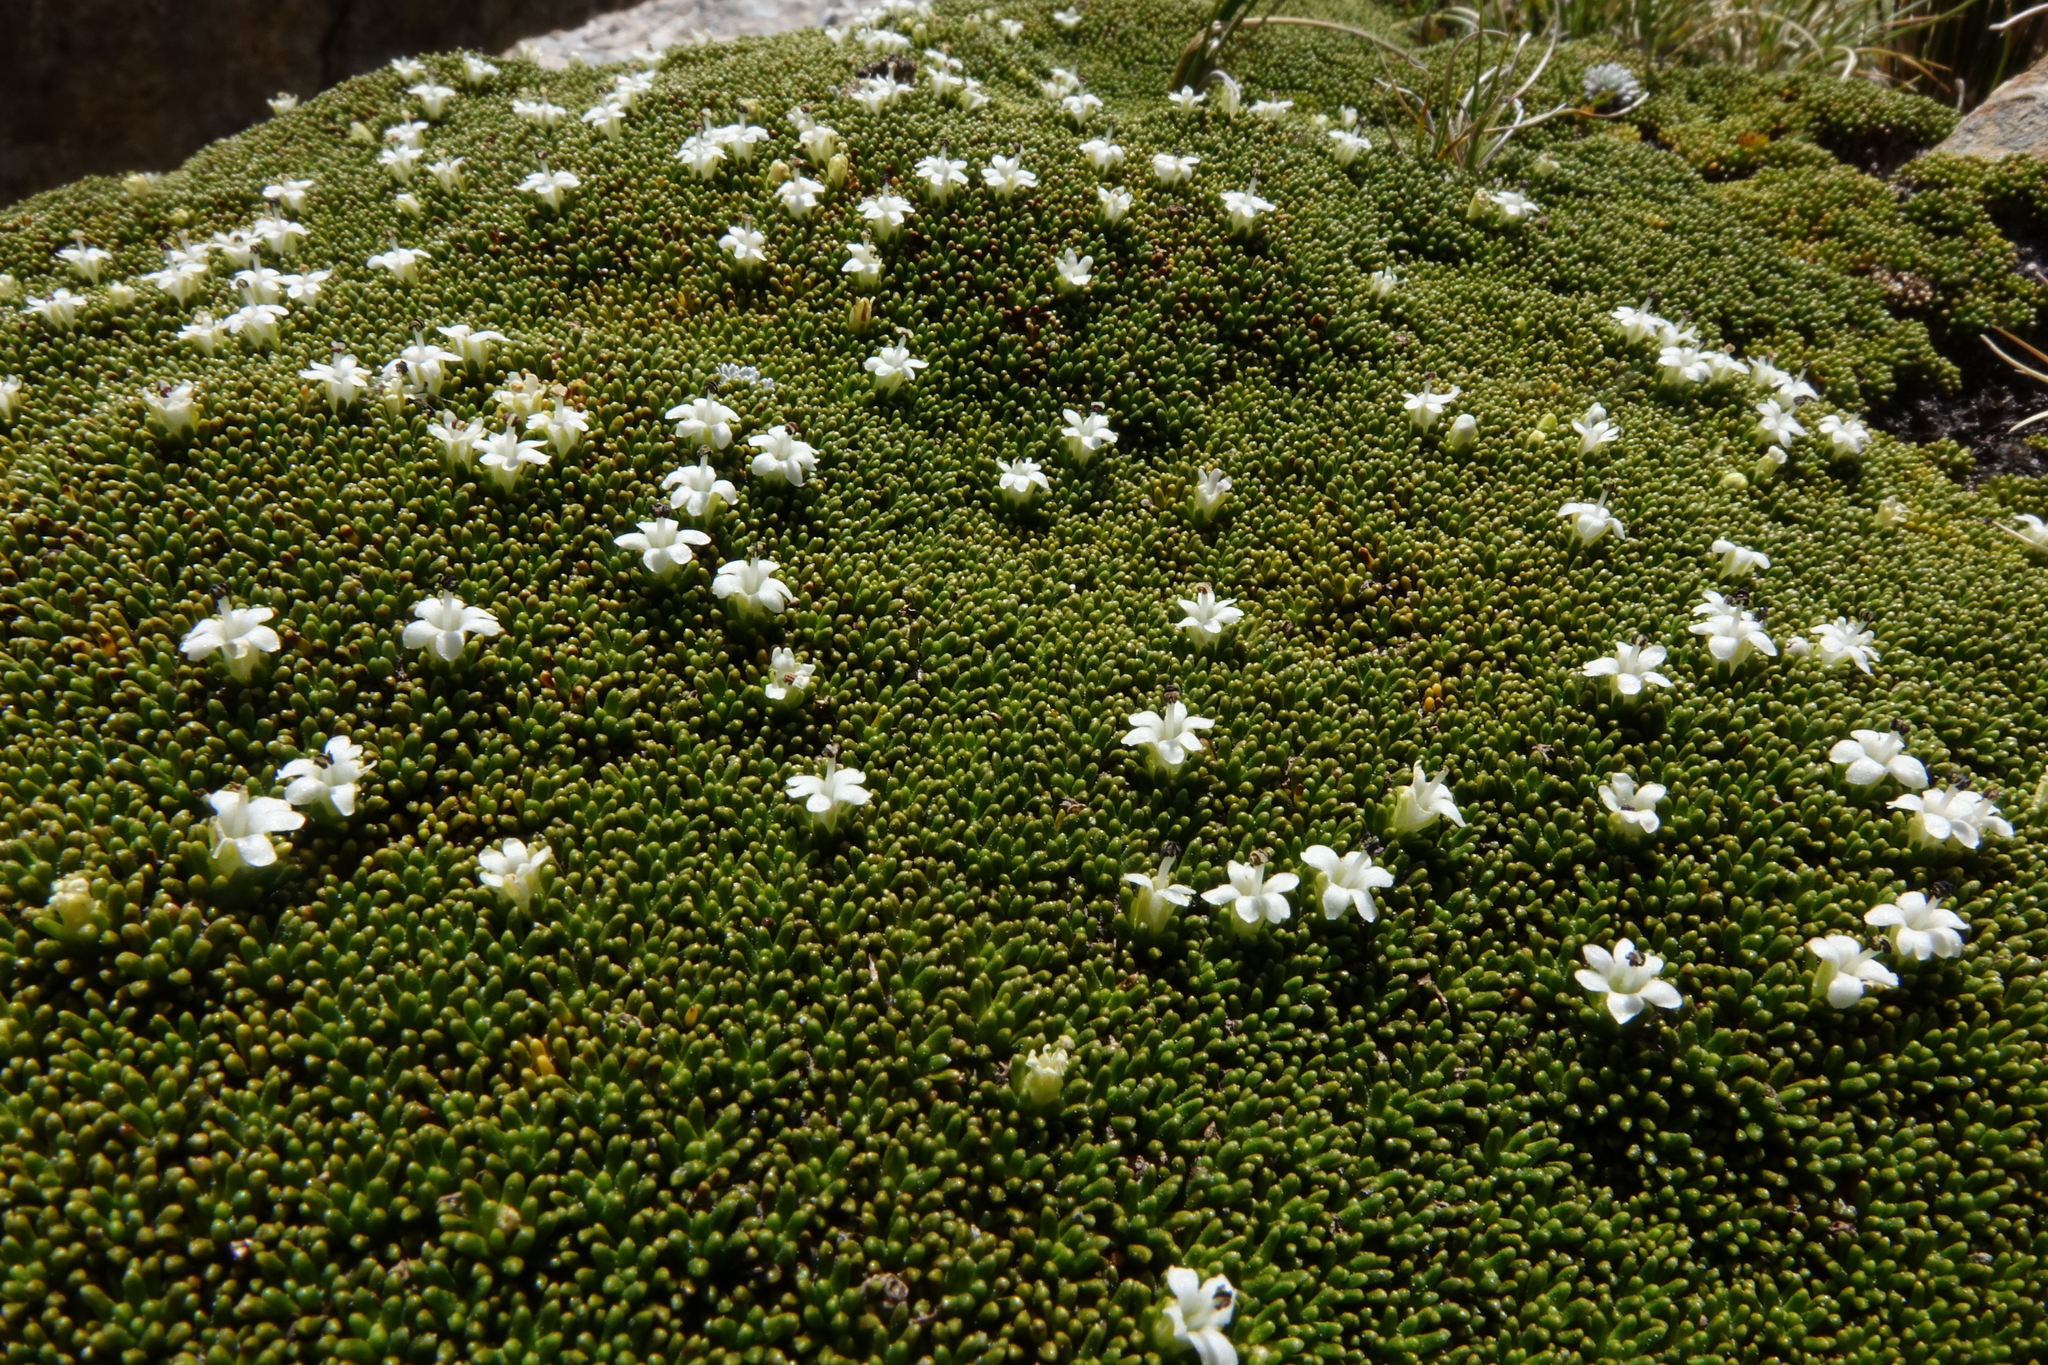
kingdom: Plantae
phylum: Tracheophyta
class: Magnoliopsida
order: Asterales
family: Stylidiaceae
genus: Phyllachne
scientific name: Phyllachne colensoi
